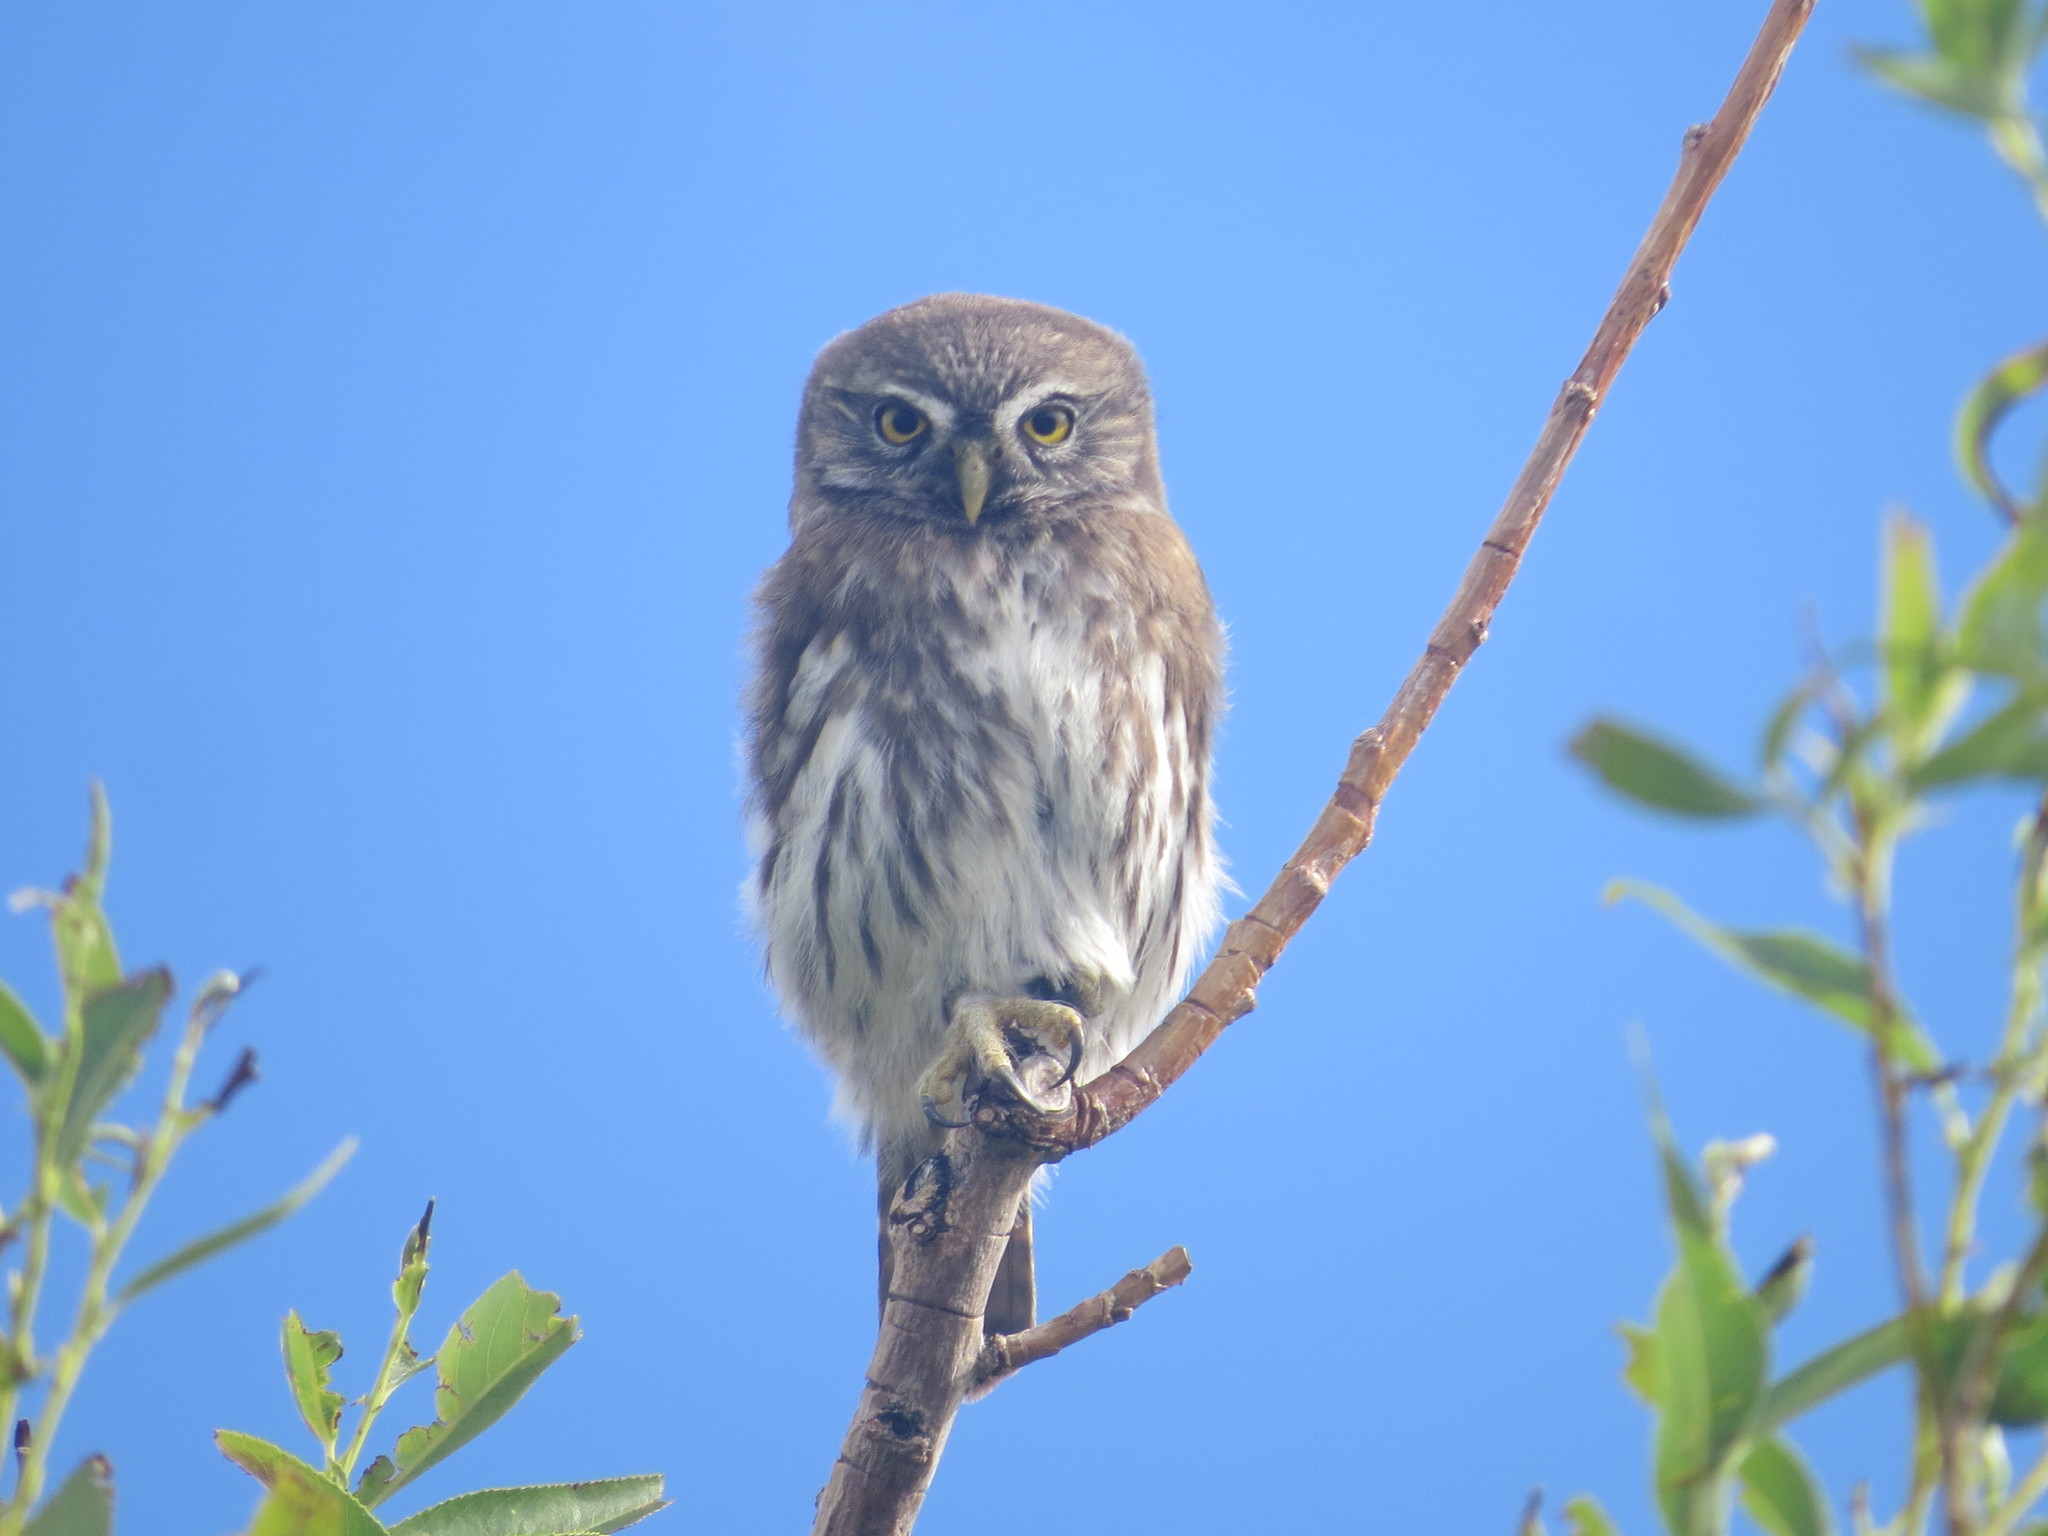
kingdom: Animalia
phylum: Chordata
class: Aves
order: Strigiformes
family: Strigidae
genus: Glaucidium
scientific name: Glaucidium nana
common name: Austral pygmy-owl
